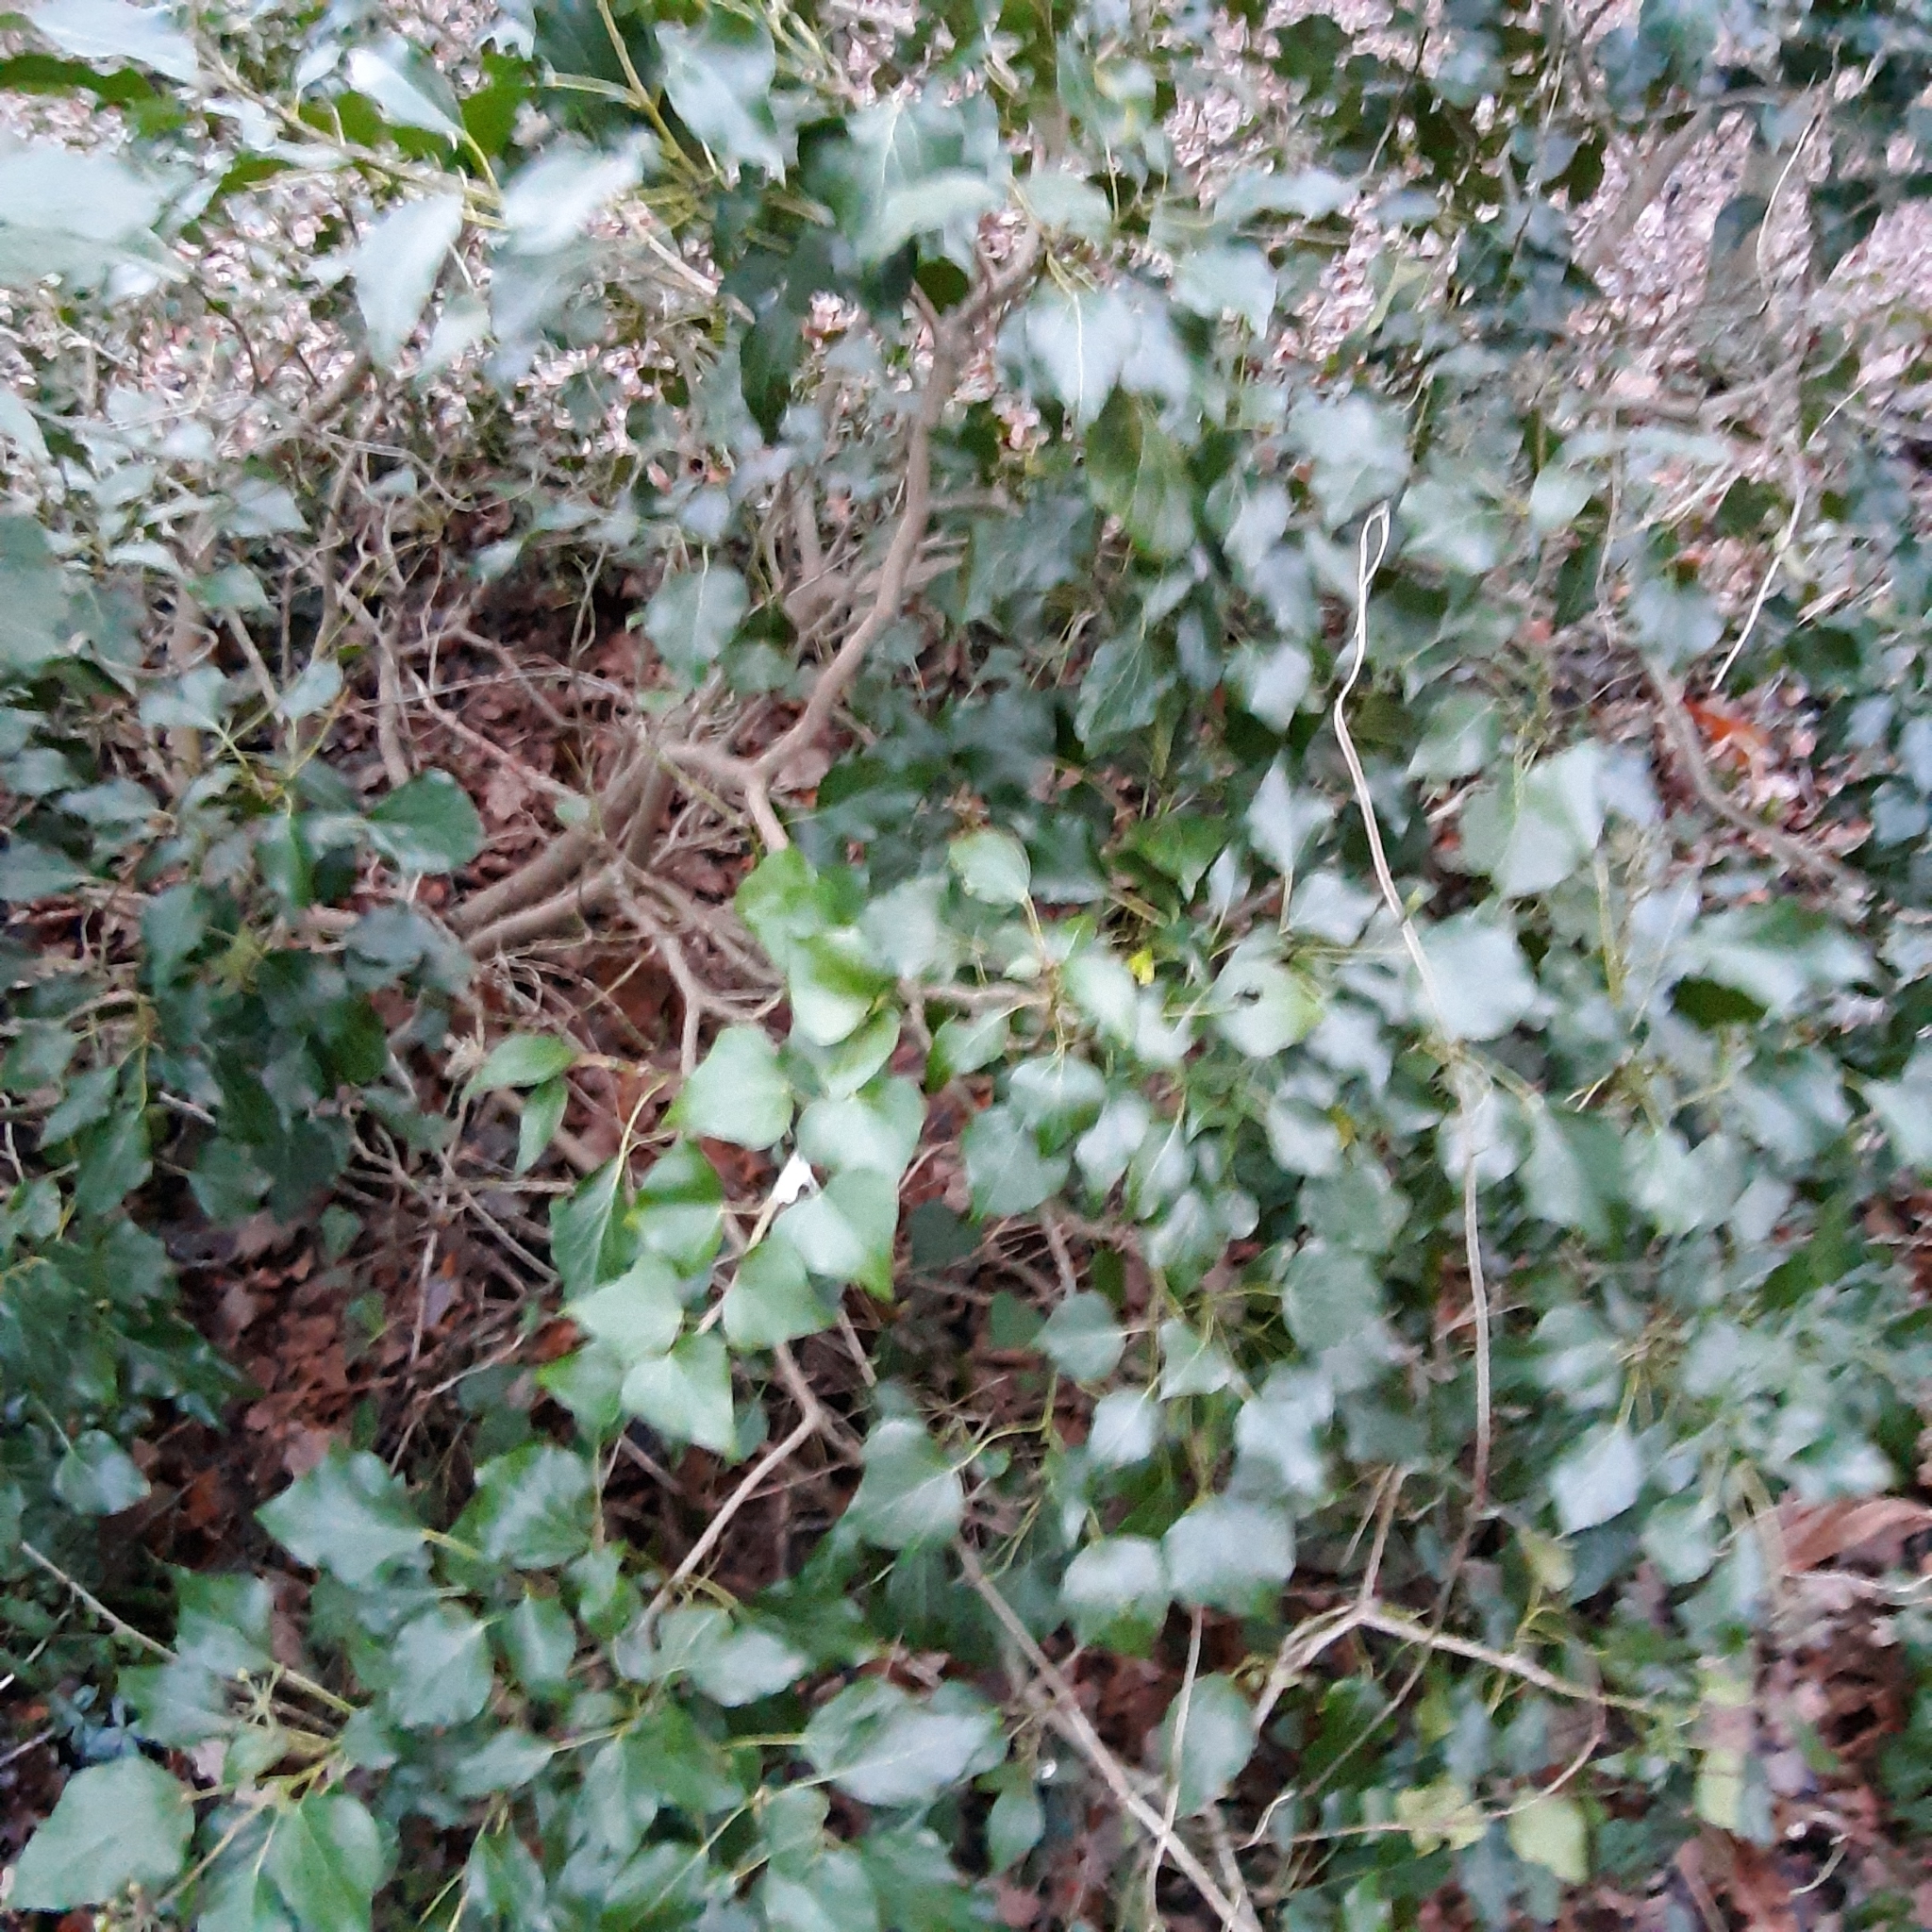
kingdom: Plantae
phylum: Tracheophyta
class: Magnoliopsida
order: Apiales
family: Araliaceae
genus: Hedera
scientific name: Hedera helix
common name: Ivy
